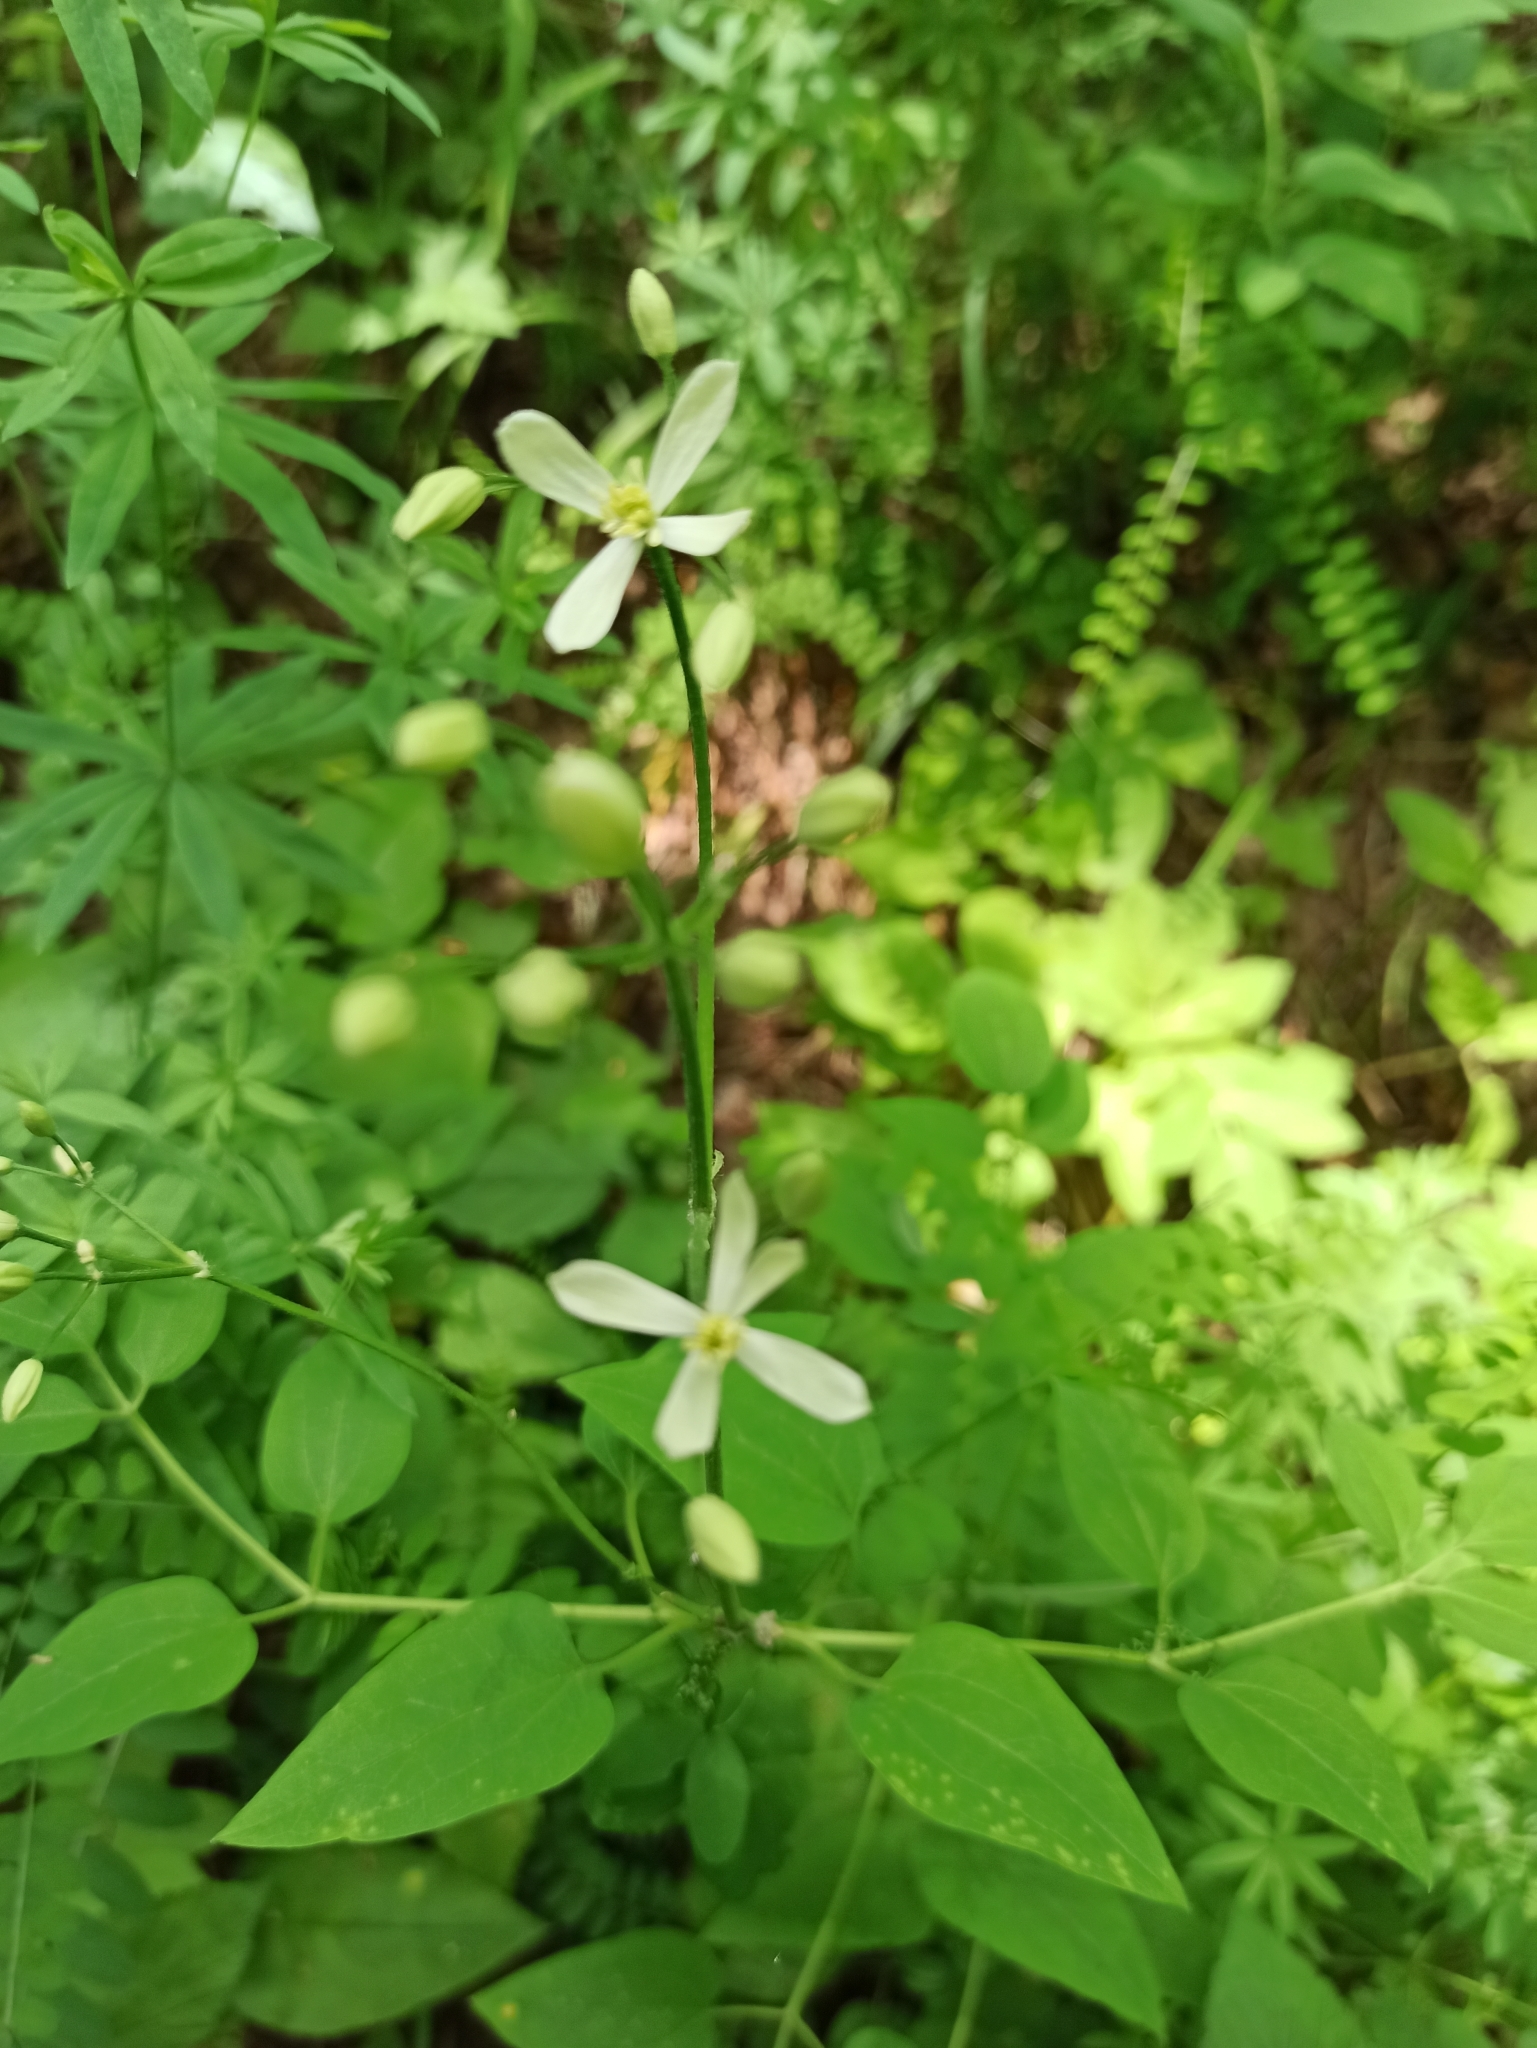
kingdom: Plantae
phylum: Tracheophyta
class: Magnoliopsida
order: Ranunculales
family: Ranunculaceae
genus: Clematis
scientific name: Clematis recta
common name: Ground clematis
